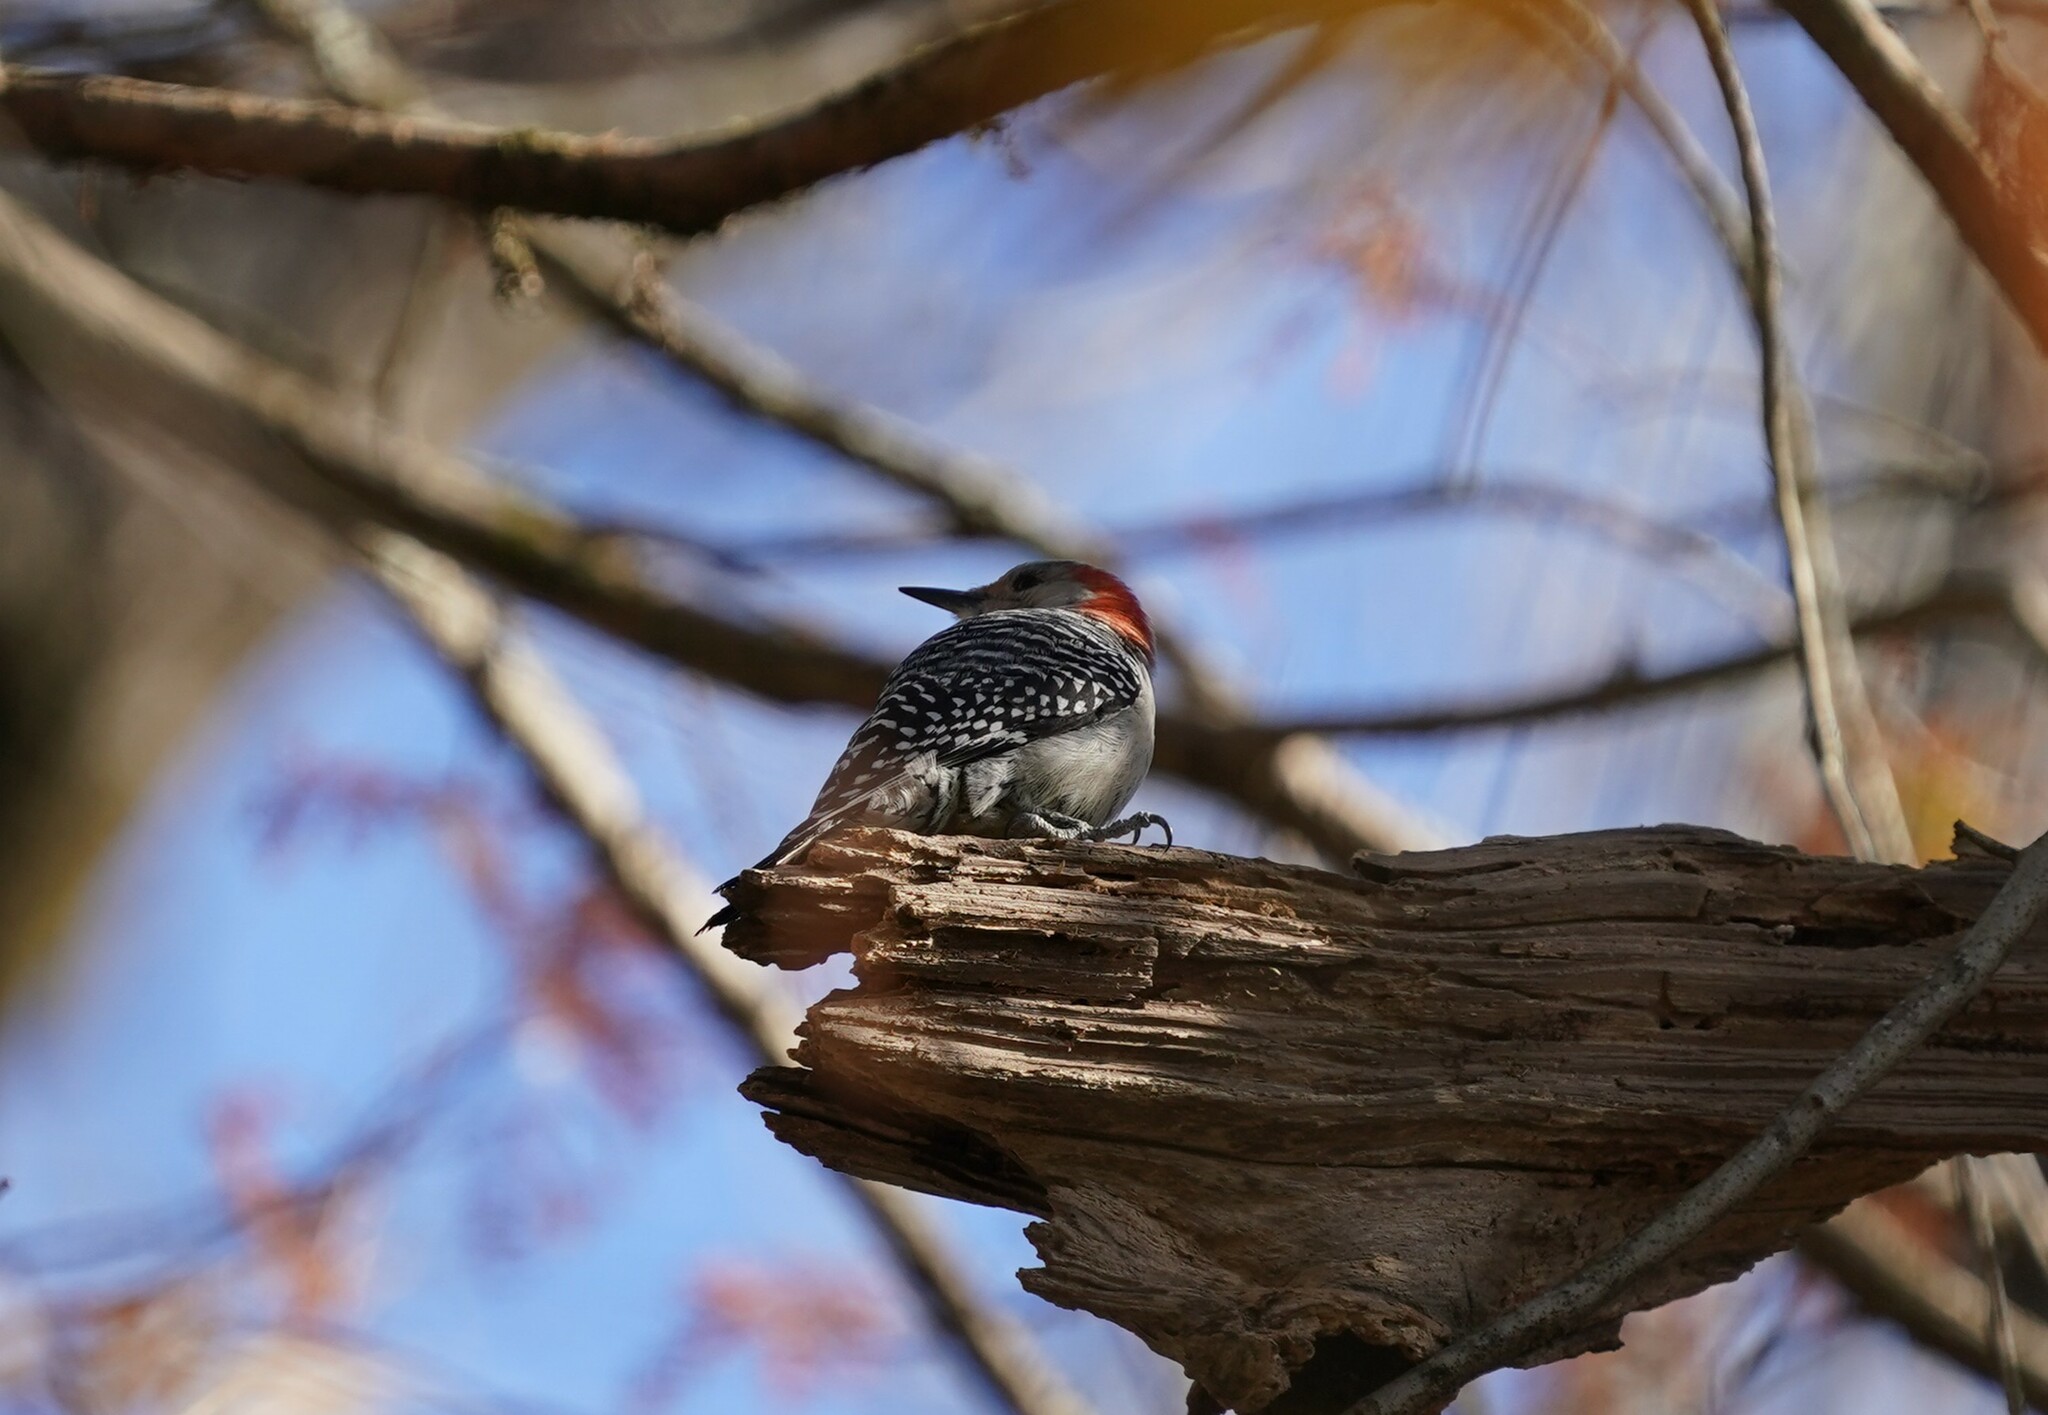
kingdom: Animalia
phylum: Chordata
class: Aves
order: Piciformes
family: Picidae
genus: Melanerpes
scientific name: Melanerpes carolinus
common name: Red-bellied woodpecker
